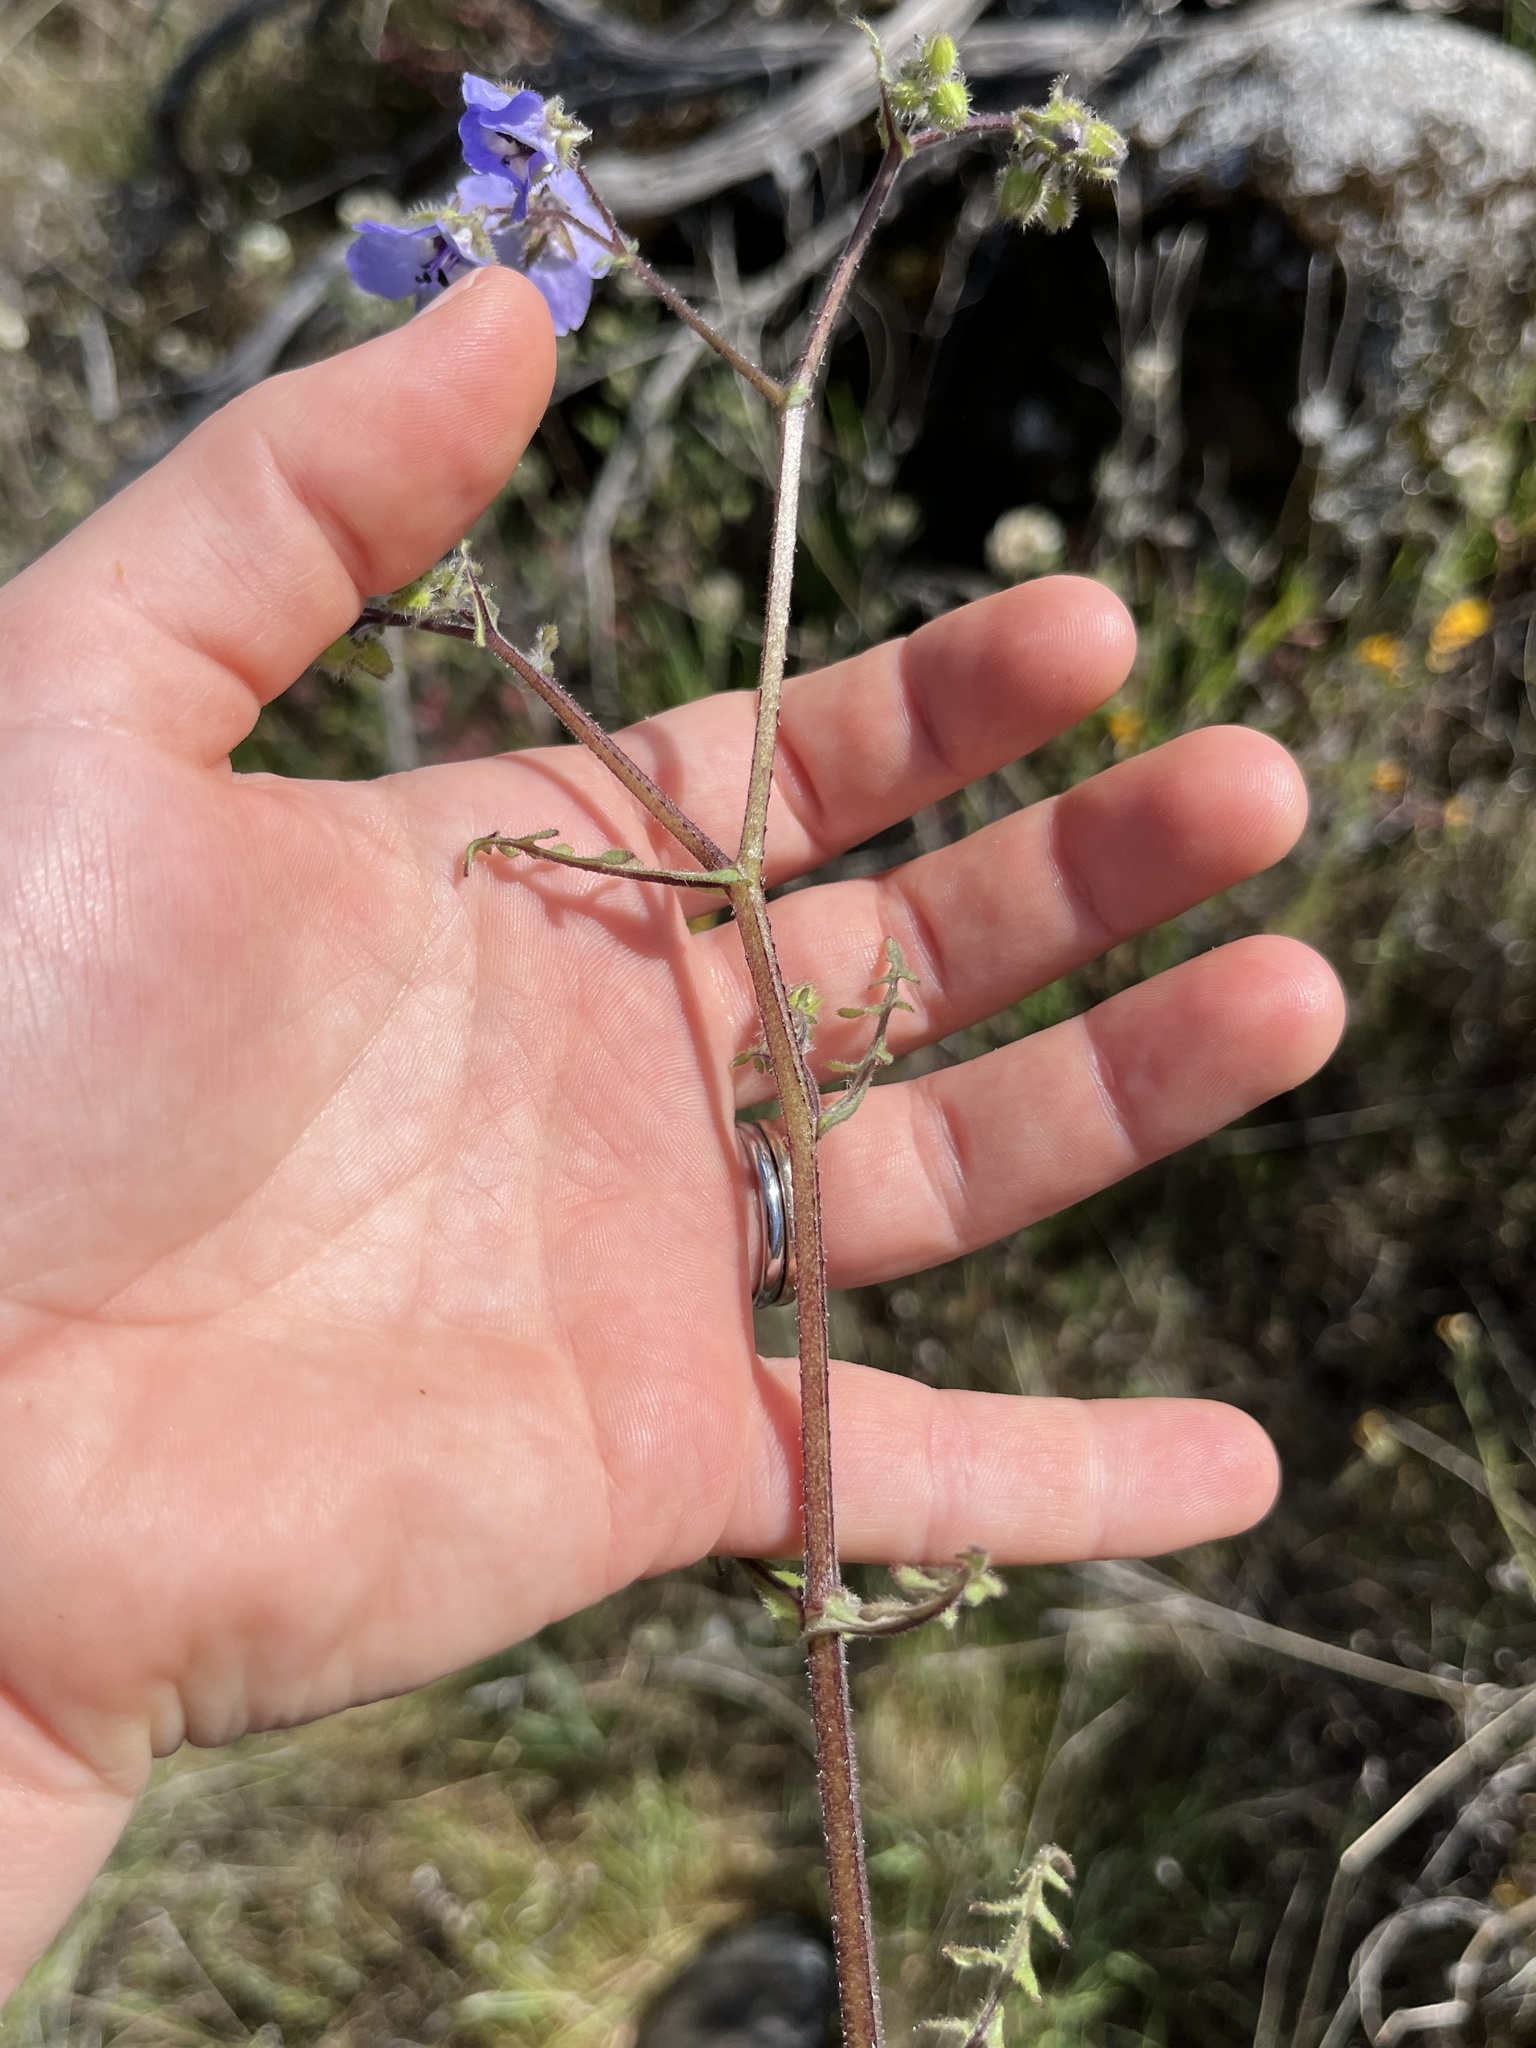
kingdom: Plantae
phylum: Tracheophyta
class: Magnoliopsida
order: Boraginales
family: Hydrophyllaceae
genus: Pholistoma
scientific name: Pholistoma auritum
